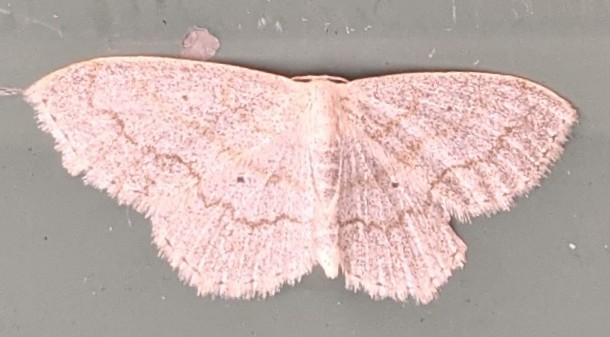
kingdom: Animalia
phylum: Arthropoda
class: Insecta
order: Lepidoptera
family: Geometridae
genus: Scopula
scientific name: Scopula limboundata
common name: Large lace border
